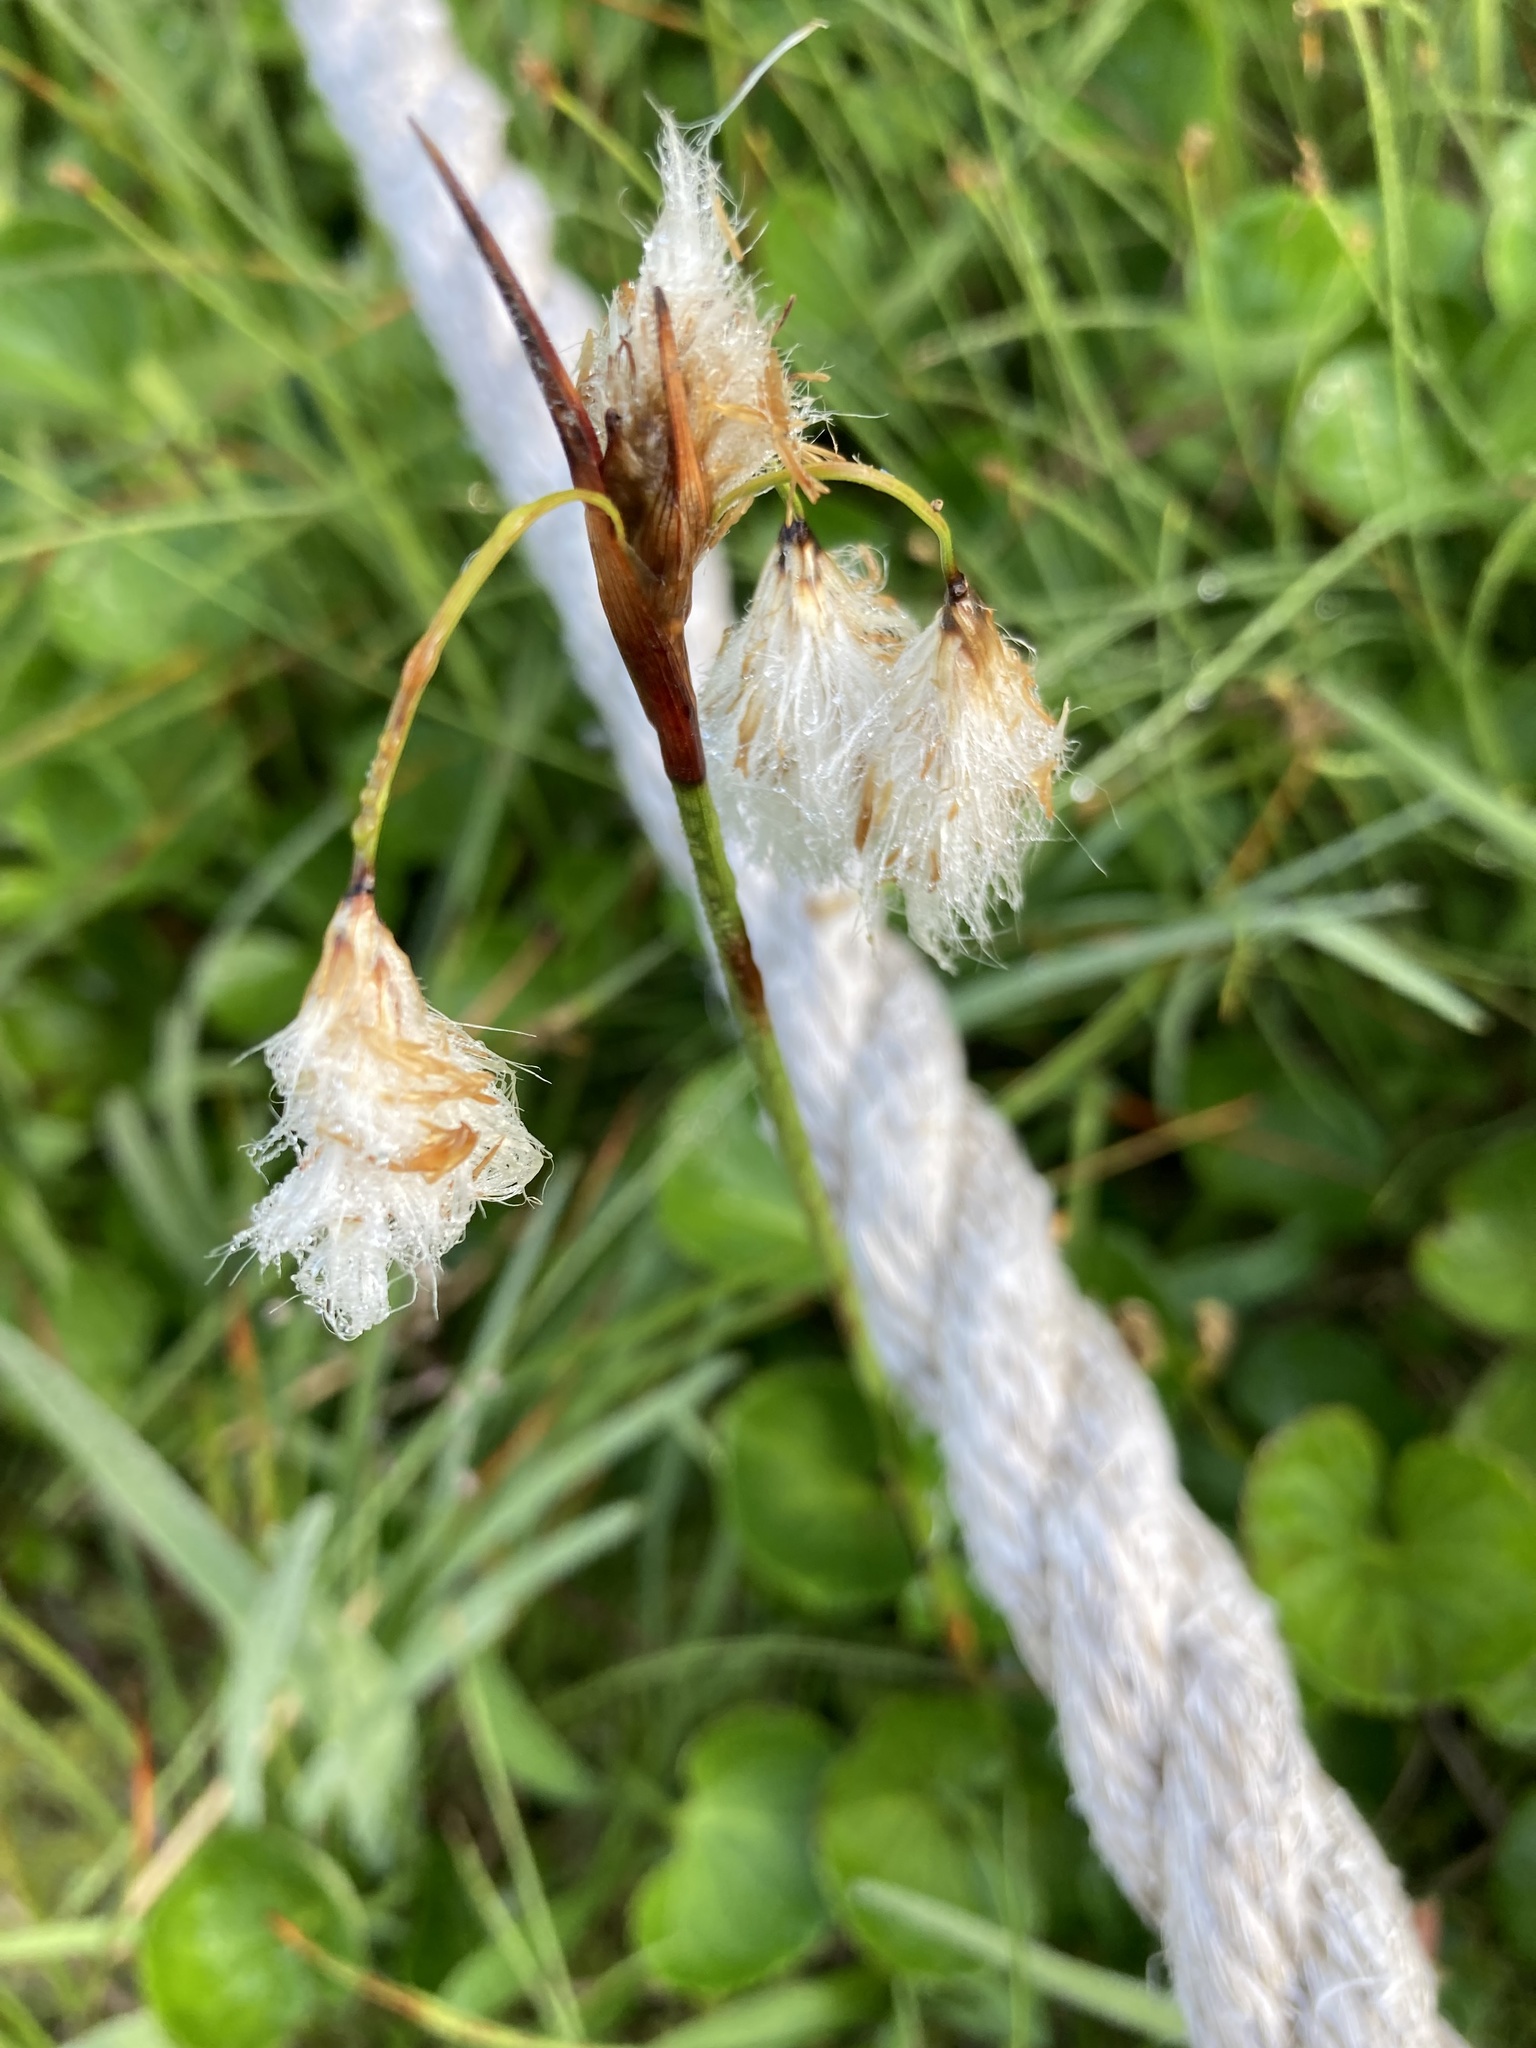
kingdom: Plantae
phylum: Tracheophyta
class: Liliopsida
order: Poales
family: Cyperaceae
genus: Eriophorum
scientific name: Eriophorum angustifolium
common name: Common cottongrass
